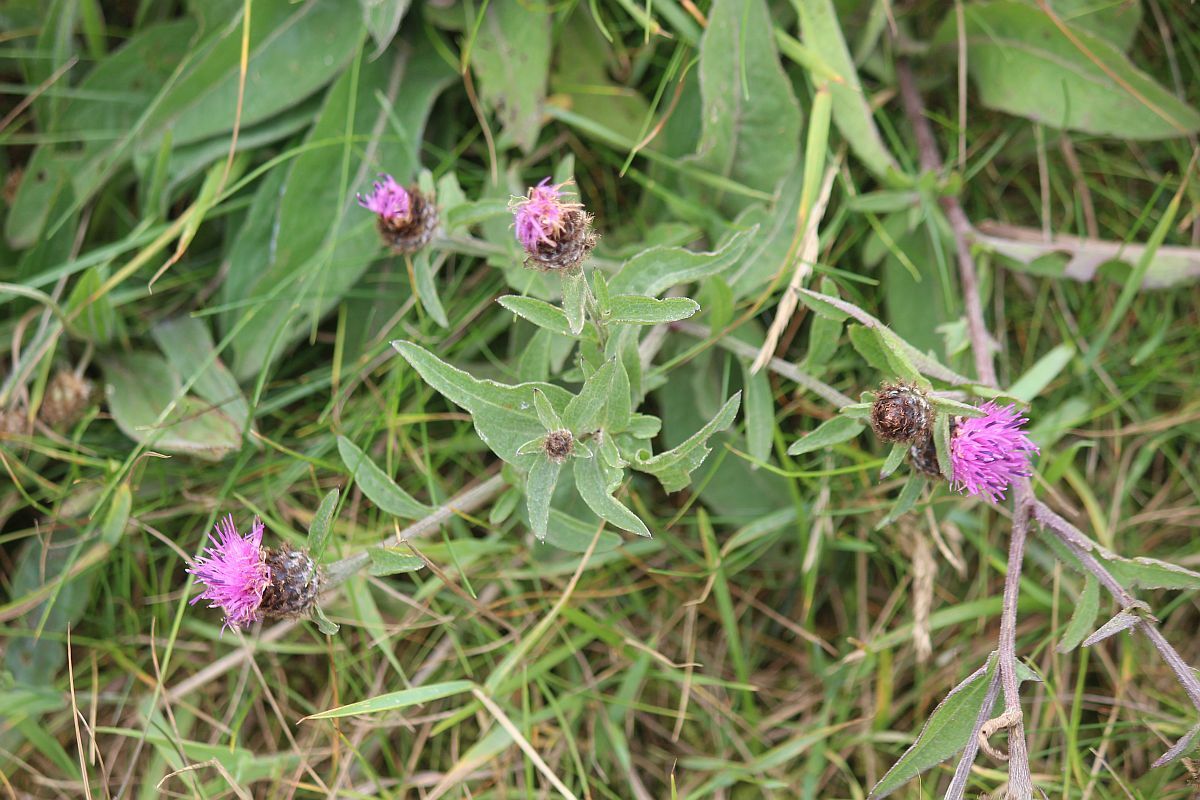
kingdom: Plantae
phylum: Tracheophyta
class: Magnoliopsida
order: Asterales
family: Asteraceae
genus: Centaurea
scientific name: Centaurea nigra
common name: Lesser knapweed
